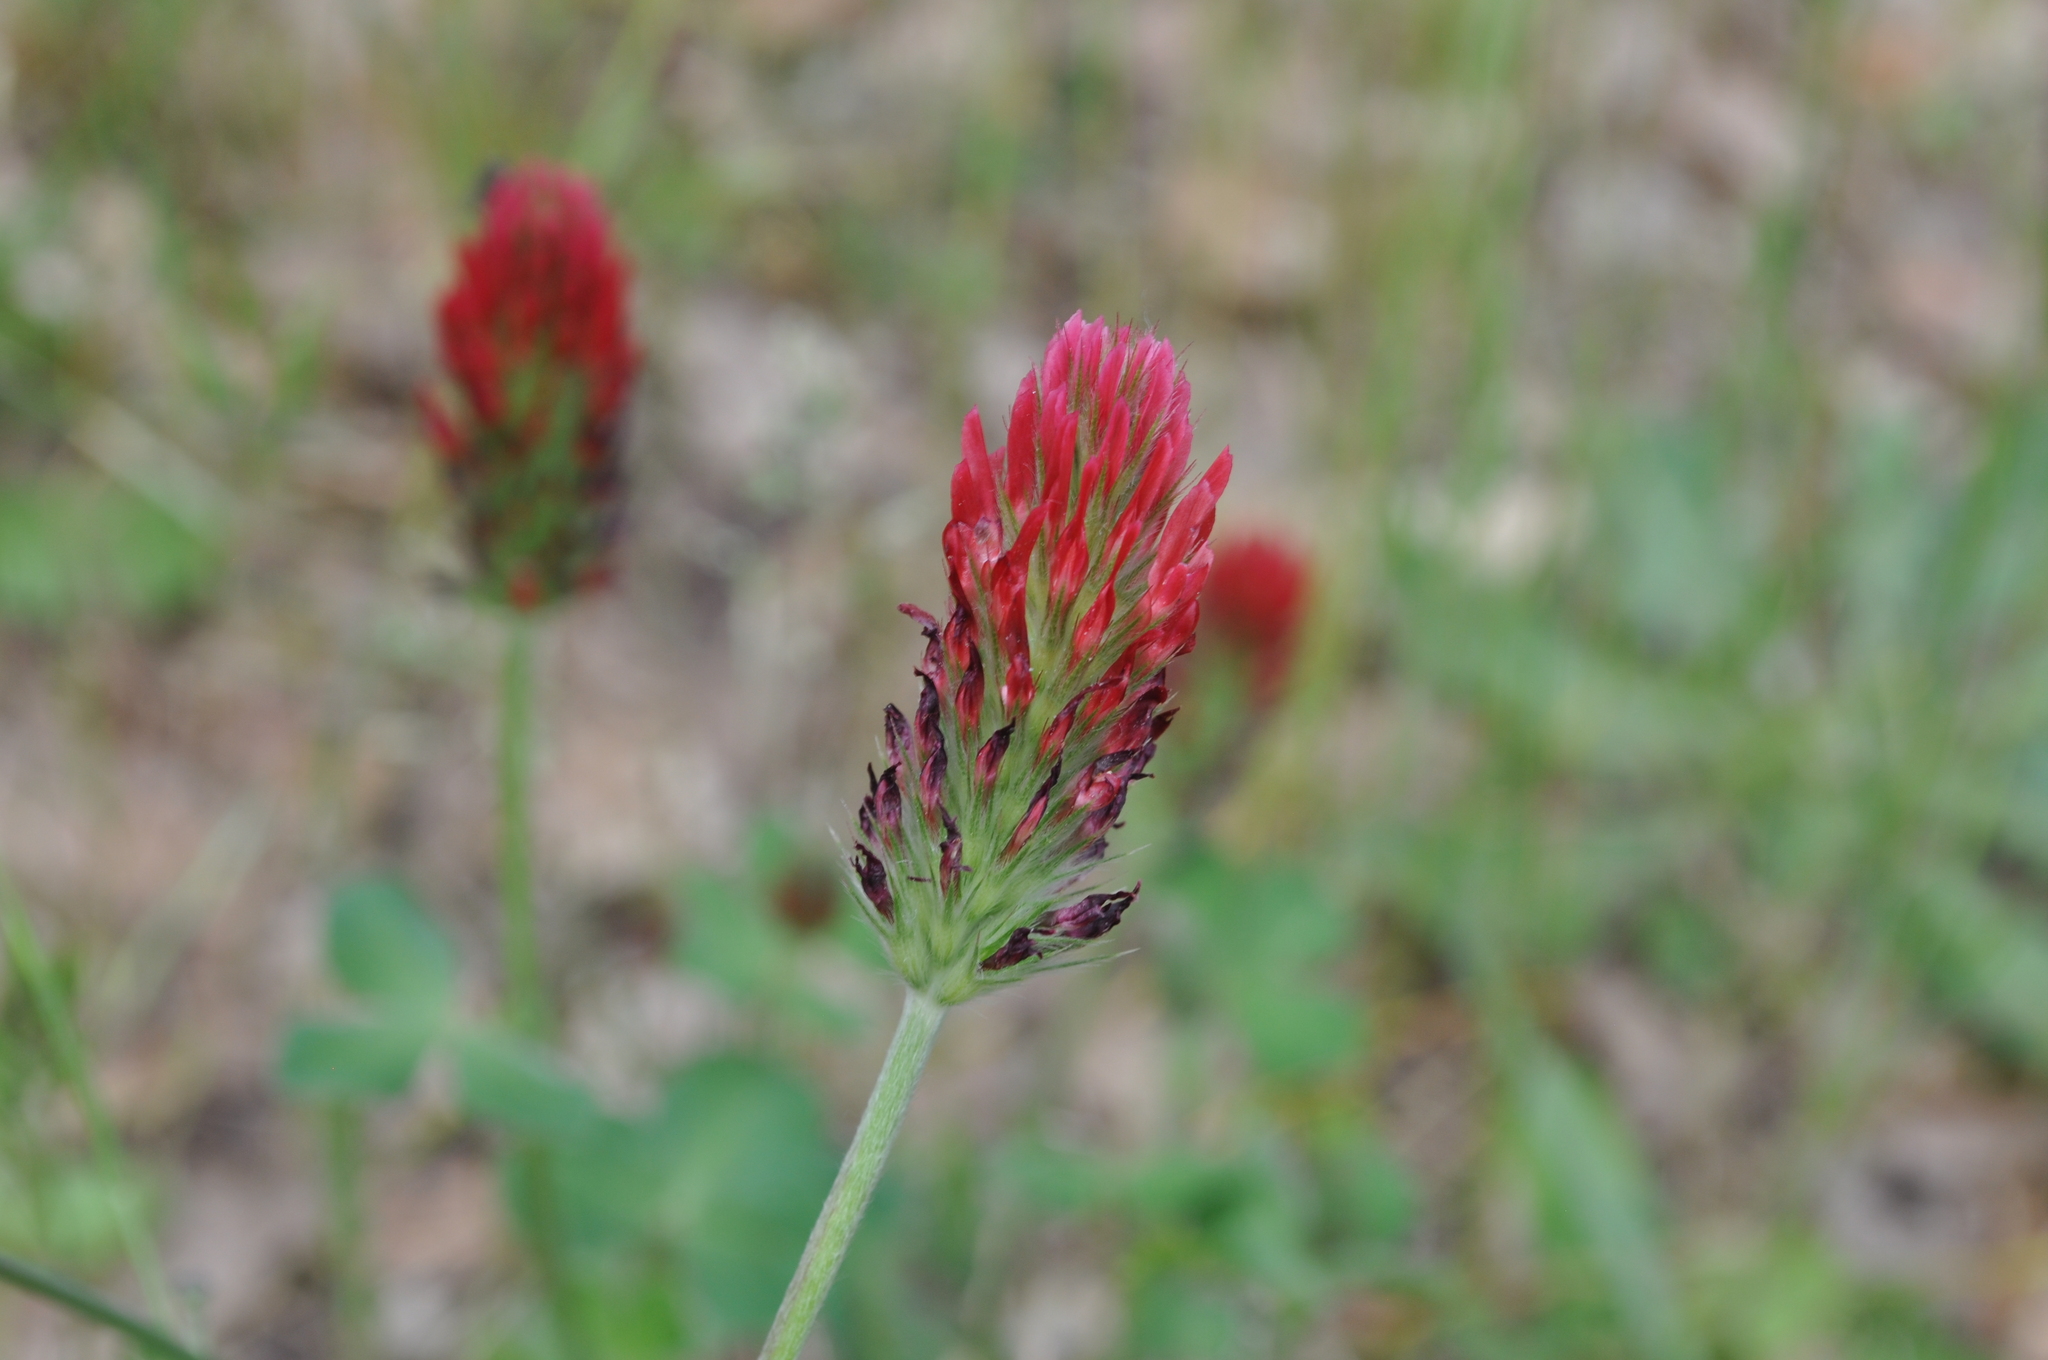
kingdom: Plantae
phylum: Tracheophyta
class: Magnoliopsida
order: Fabales
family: Fabaceae
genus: Trifolium
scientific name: Trifolium incarnatum
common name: Crimson clover
